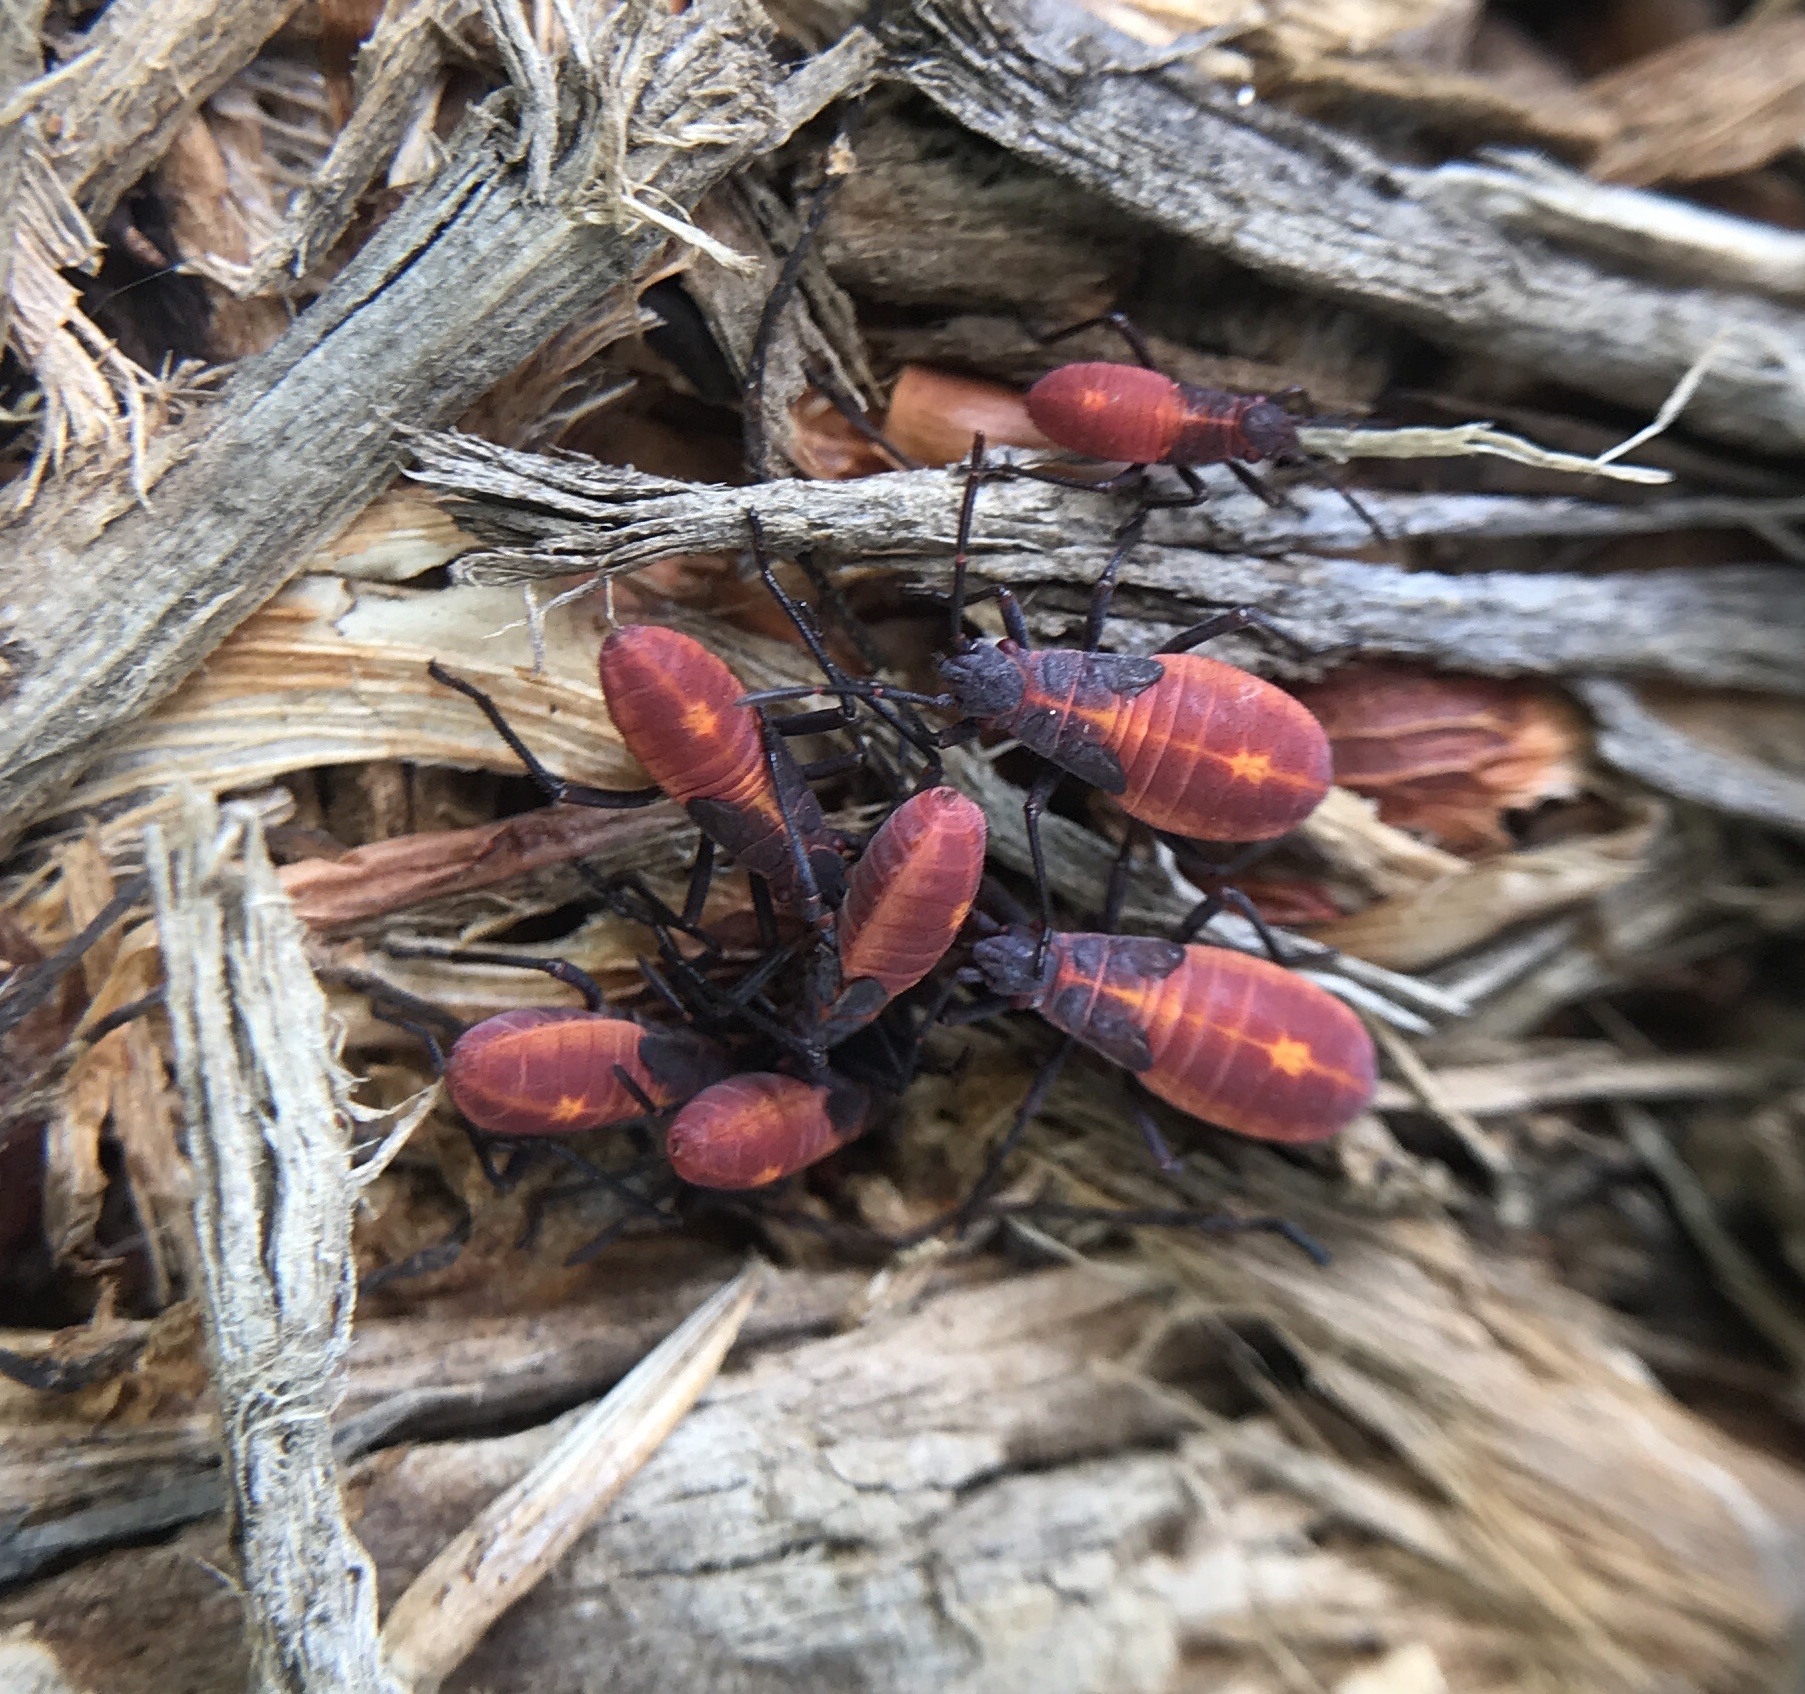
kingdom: Animalia
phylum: Arthropoda
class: Insecta
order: Hemiptera
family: Rhopalidae
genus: Boisea
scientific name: Boisea trivittata
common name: Boxelder bug
